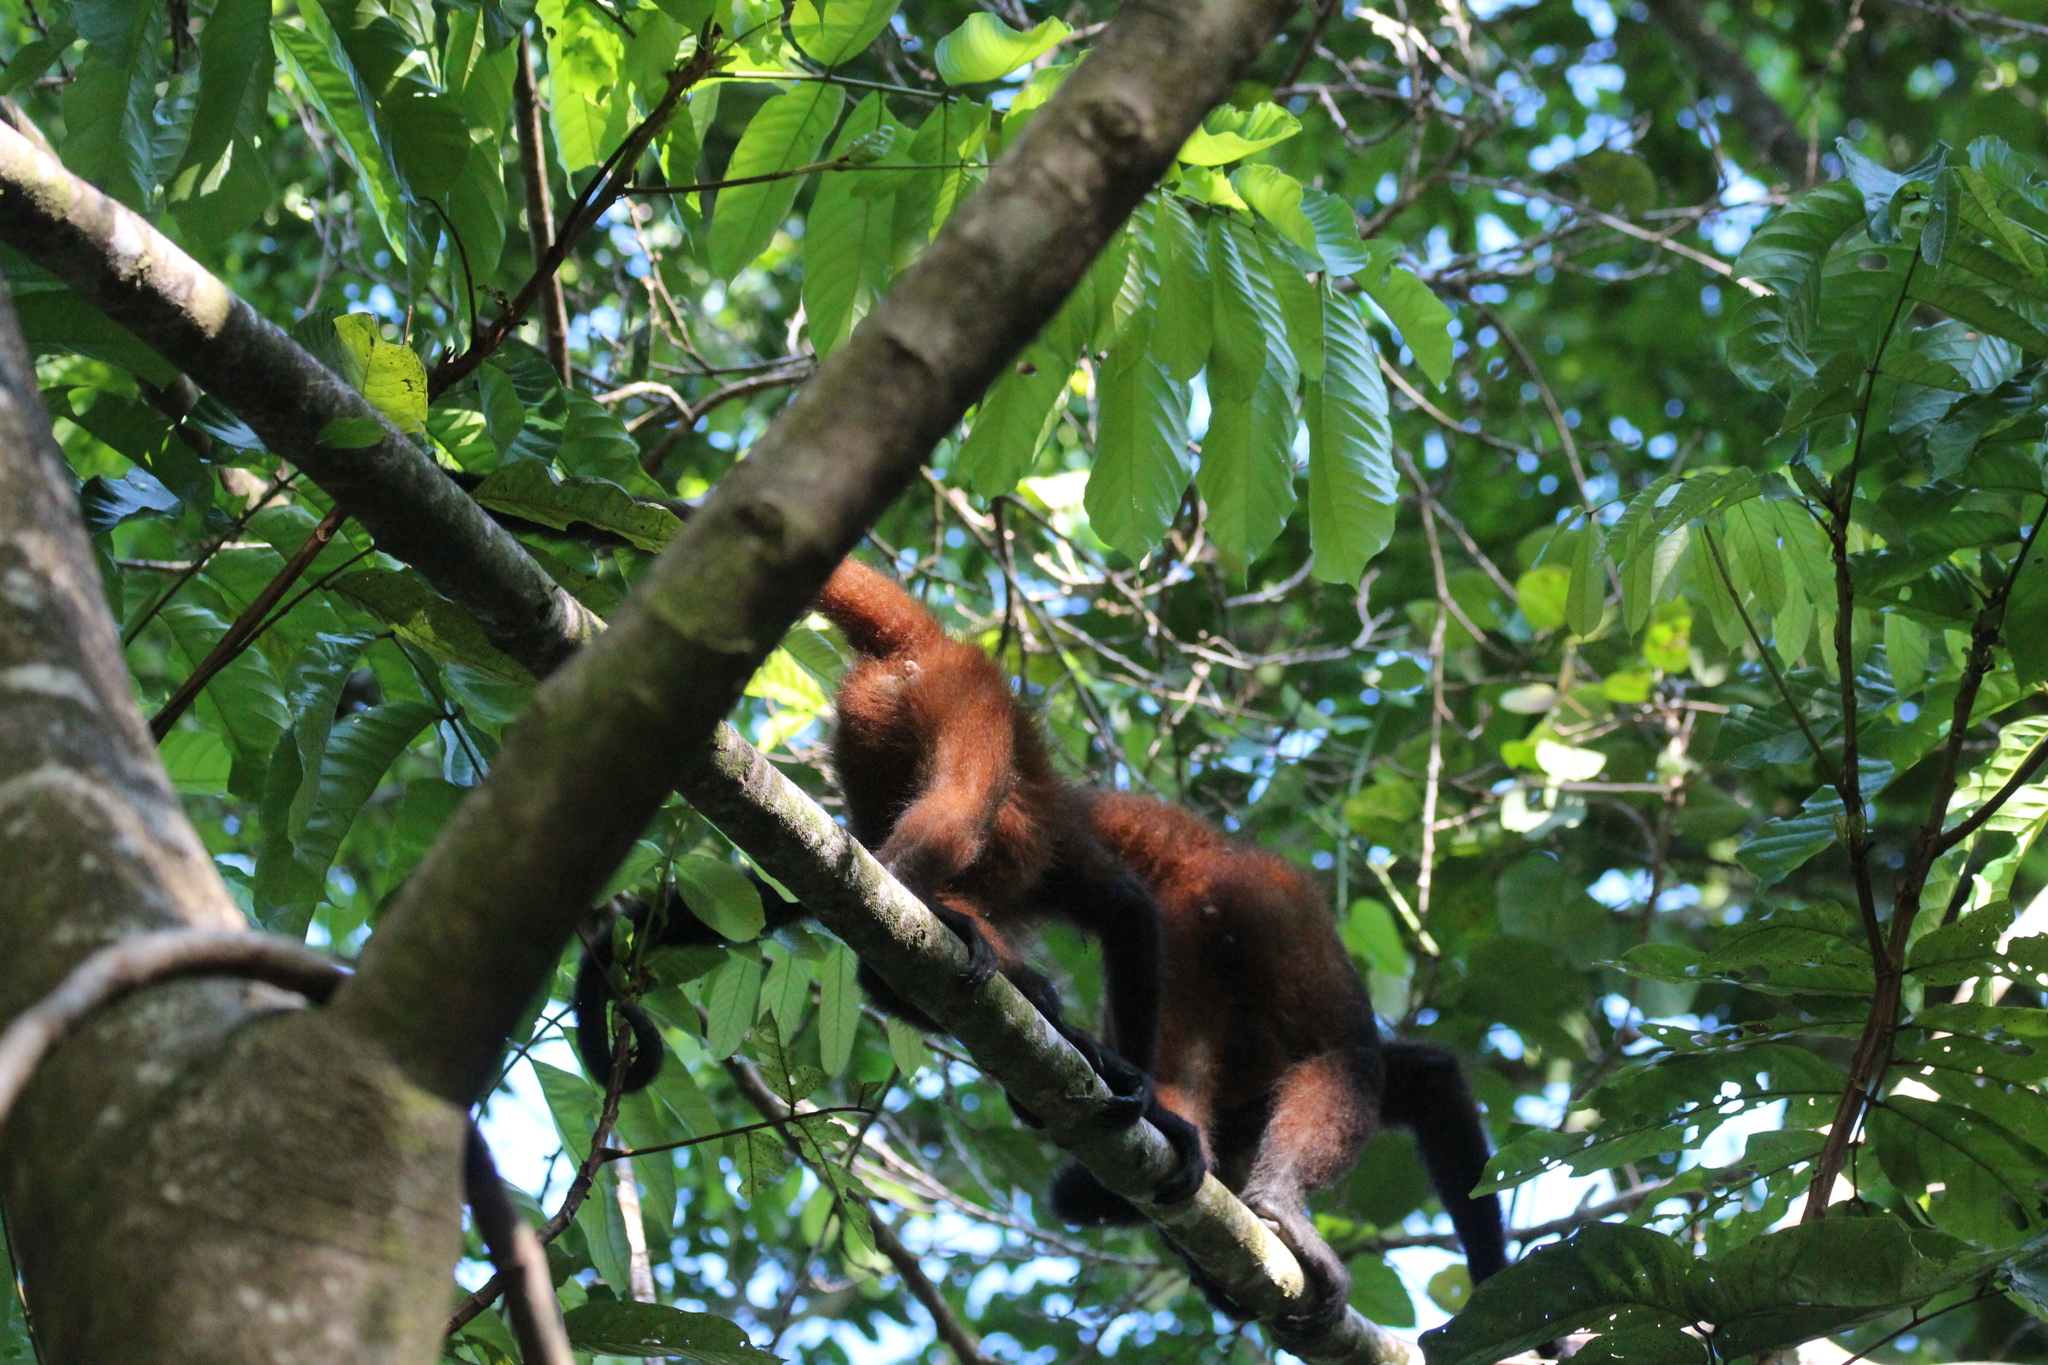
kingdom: Animalia
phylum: Chordata
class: Mammalia
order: Primates
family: Atelidae
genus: Ateles
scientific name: Ateles geoffroyi
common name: Black-handed spider monkey
